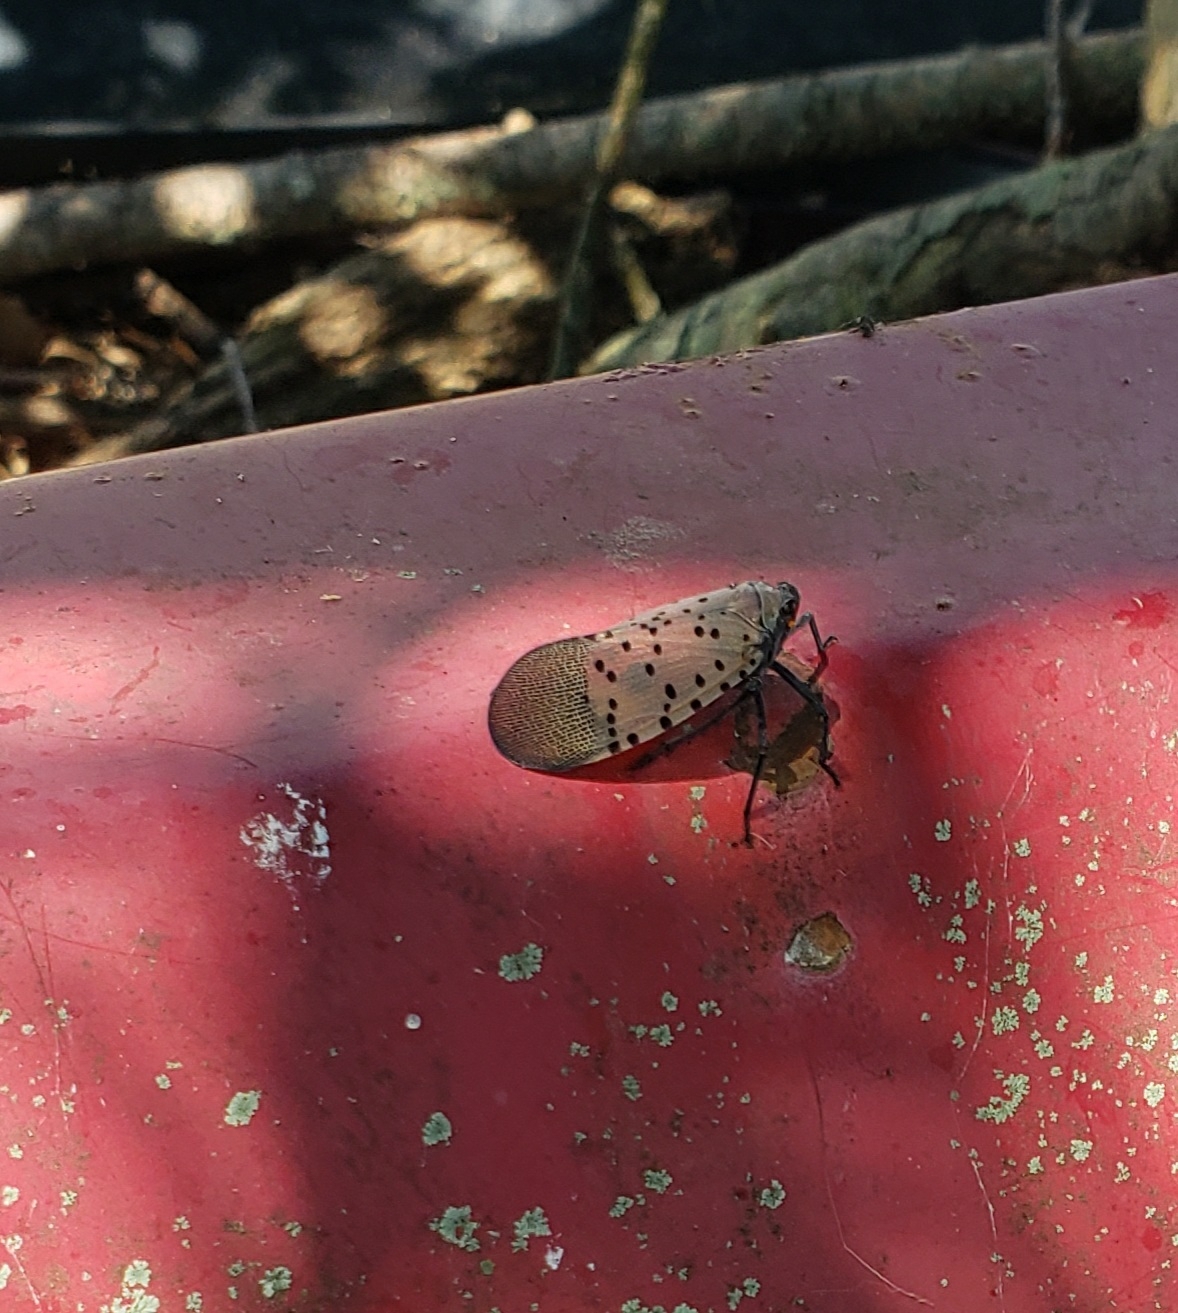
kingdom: Animalia
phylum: Arthropoda
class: Insecta
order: Hemiptera
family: Fulgoridae
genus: Lycorma
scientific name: Lycorma delicatula
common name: Spotted lanternfly
